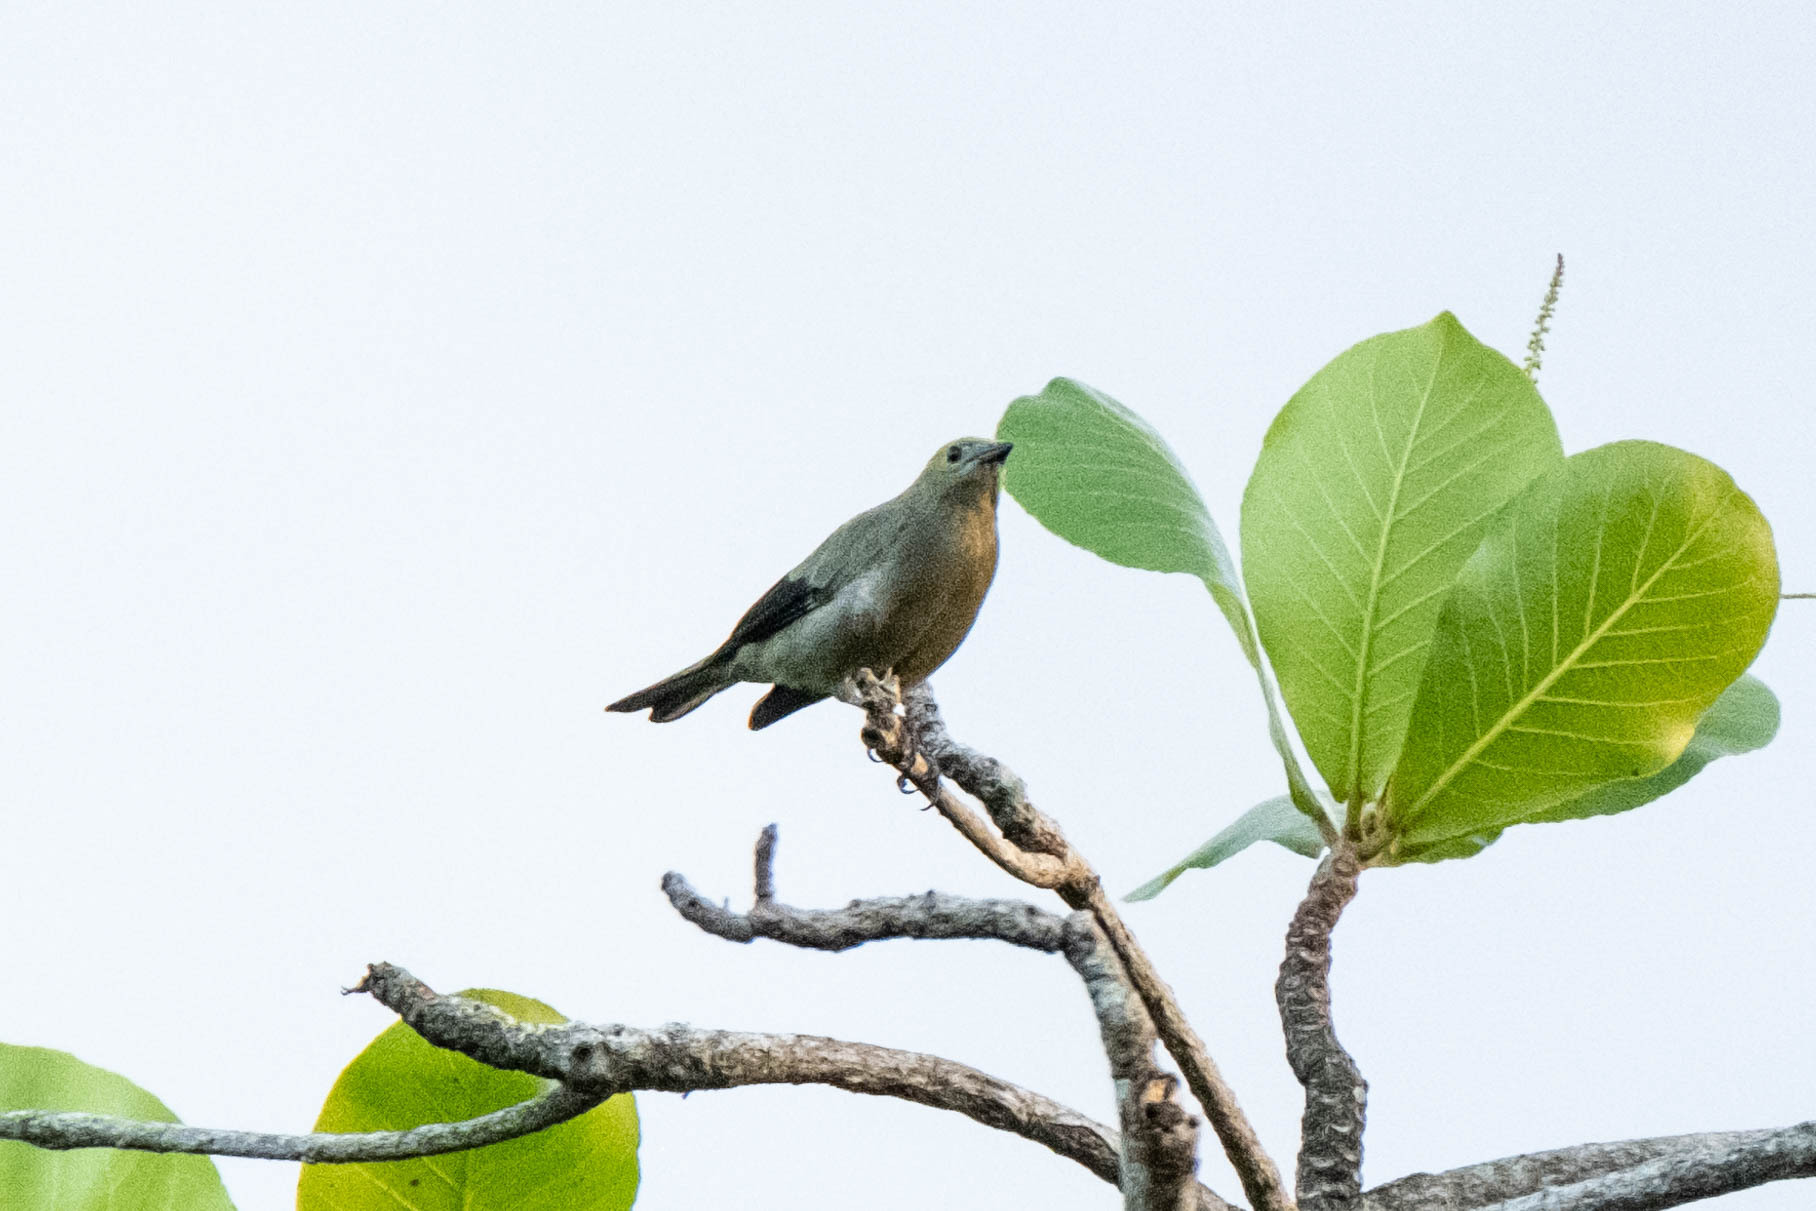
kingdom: Animalia
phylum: Chordata
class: Aves
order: Passeriformes
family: Thraupidae
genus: Thraupis
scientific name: Thraupis palmarum
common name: Palm tanager
